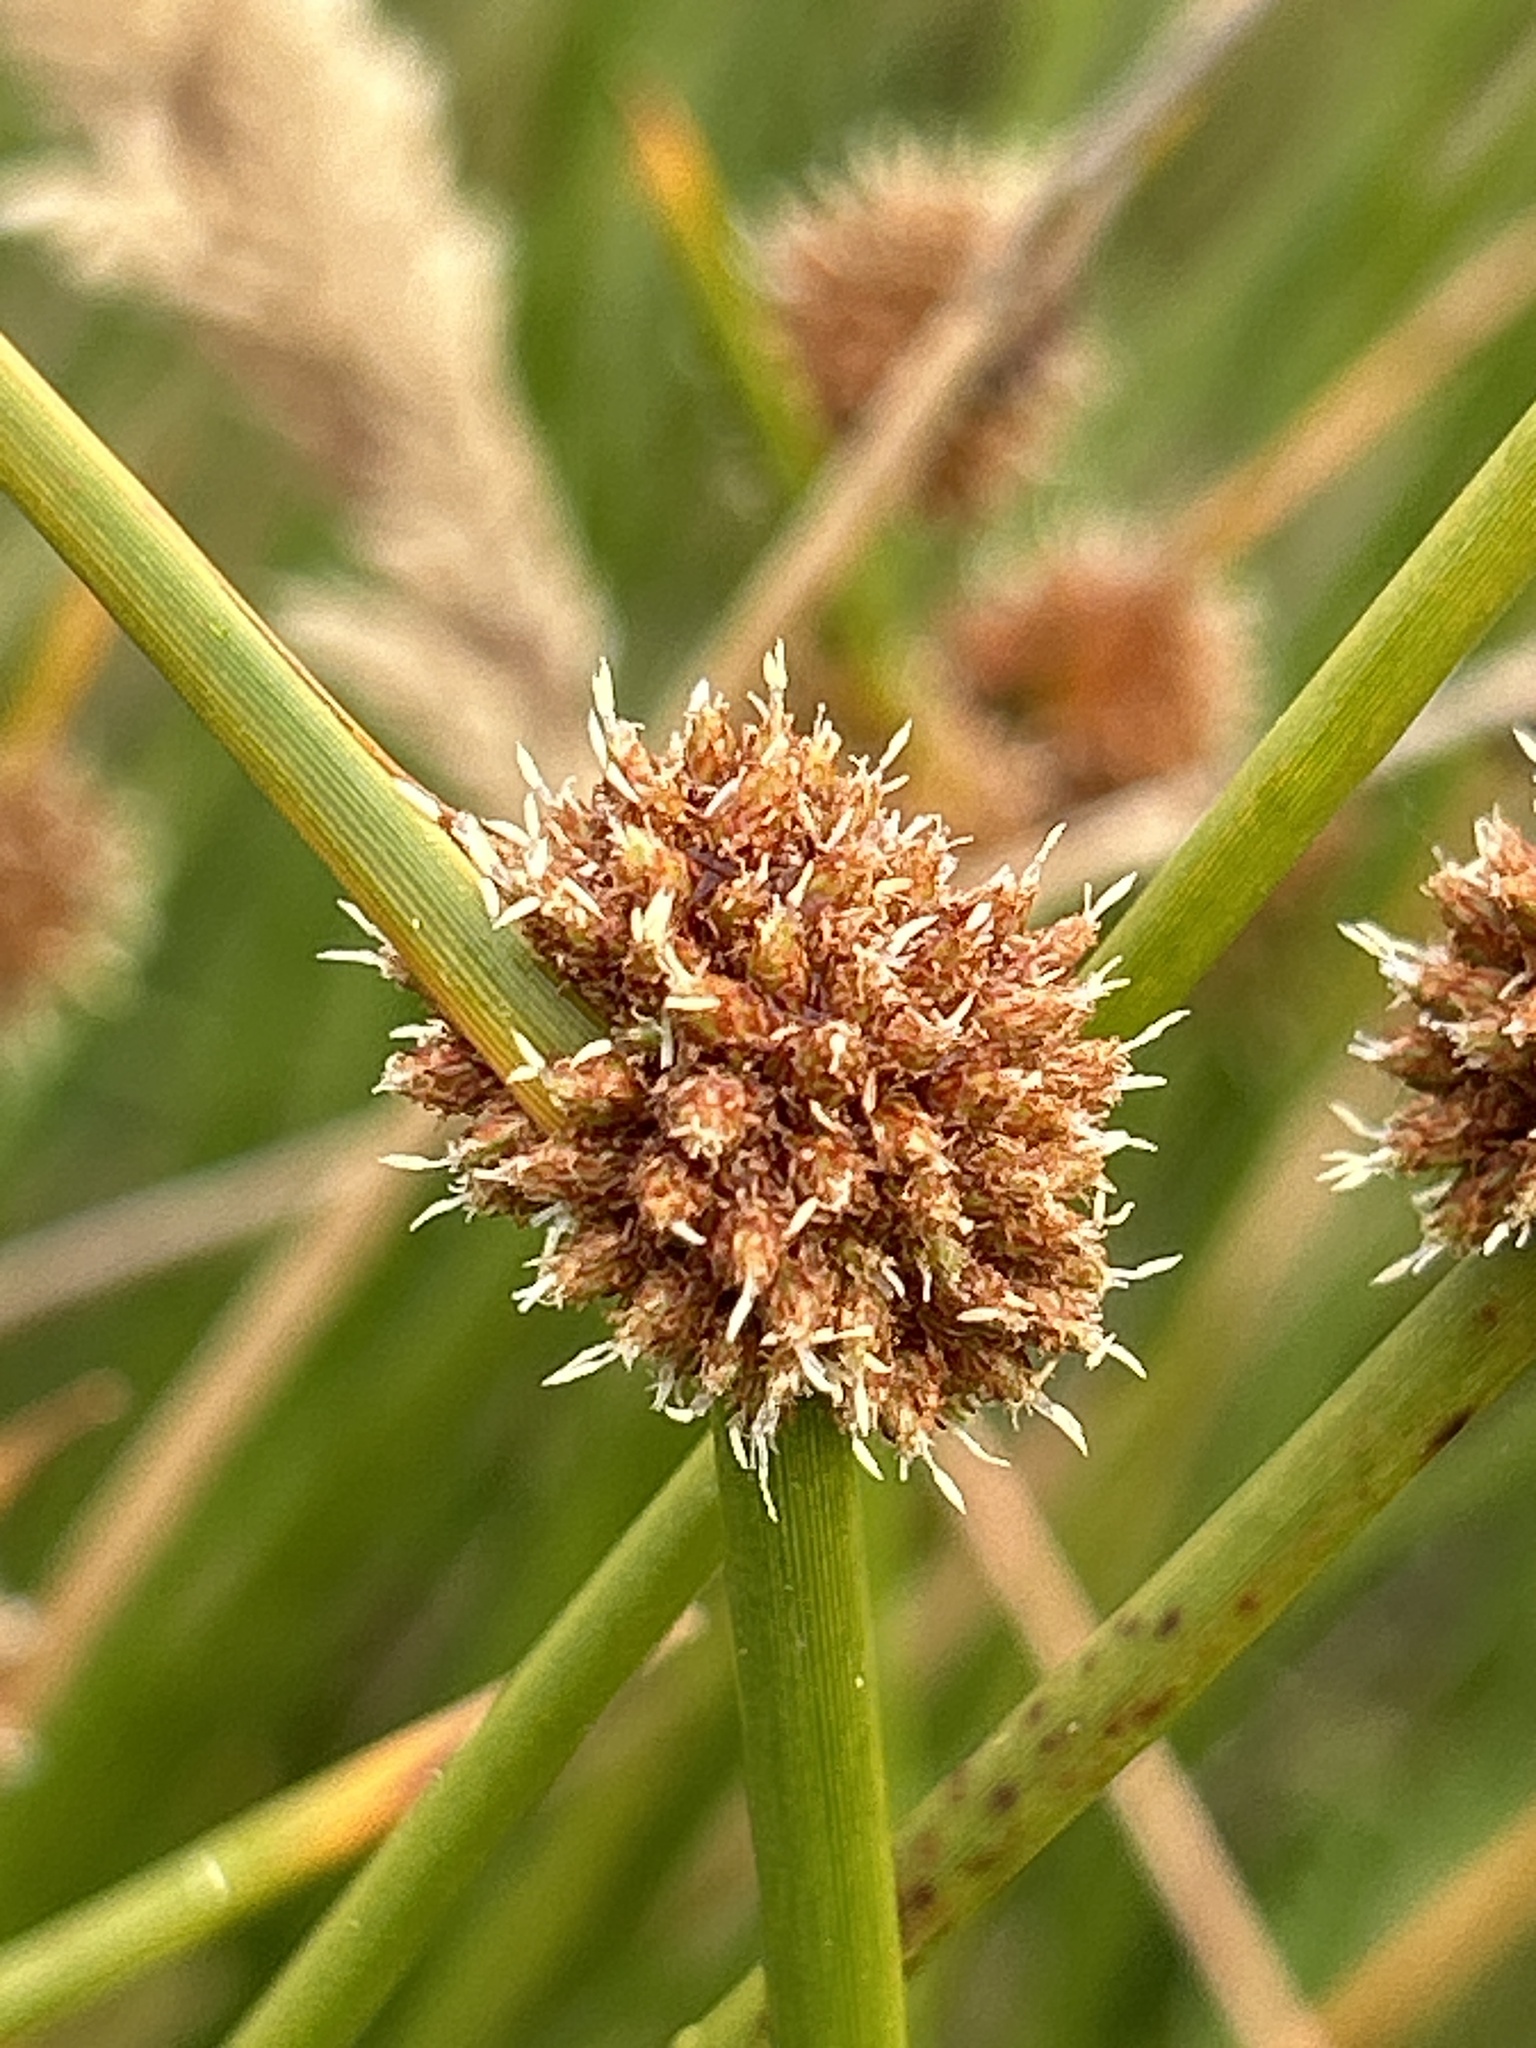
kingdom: Plantae
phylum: Tracheophyta
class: Liliopsida
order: Poales
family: Cyperaceae
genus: Ficinia
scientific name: Ficinia nodosa
